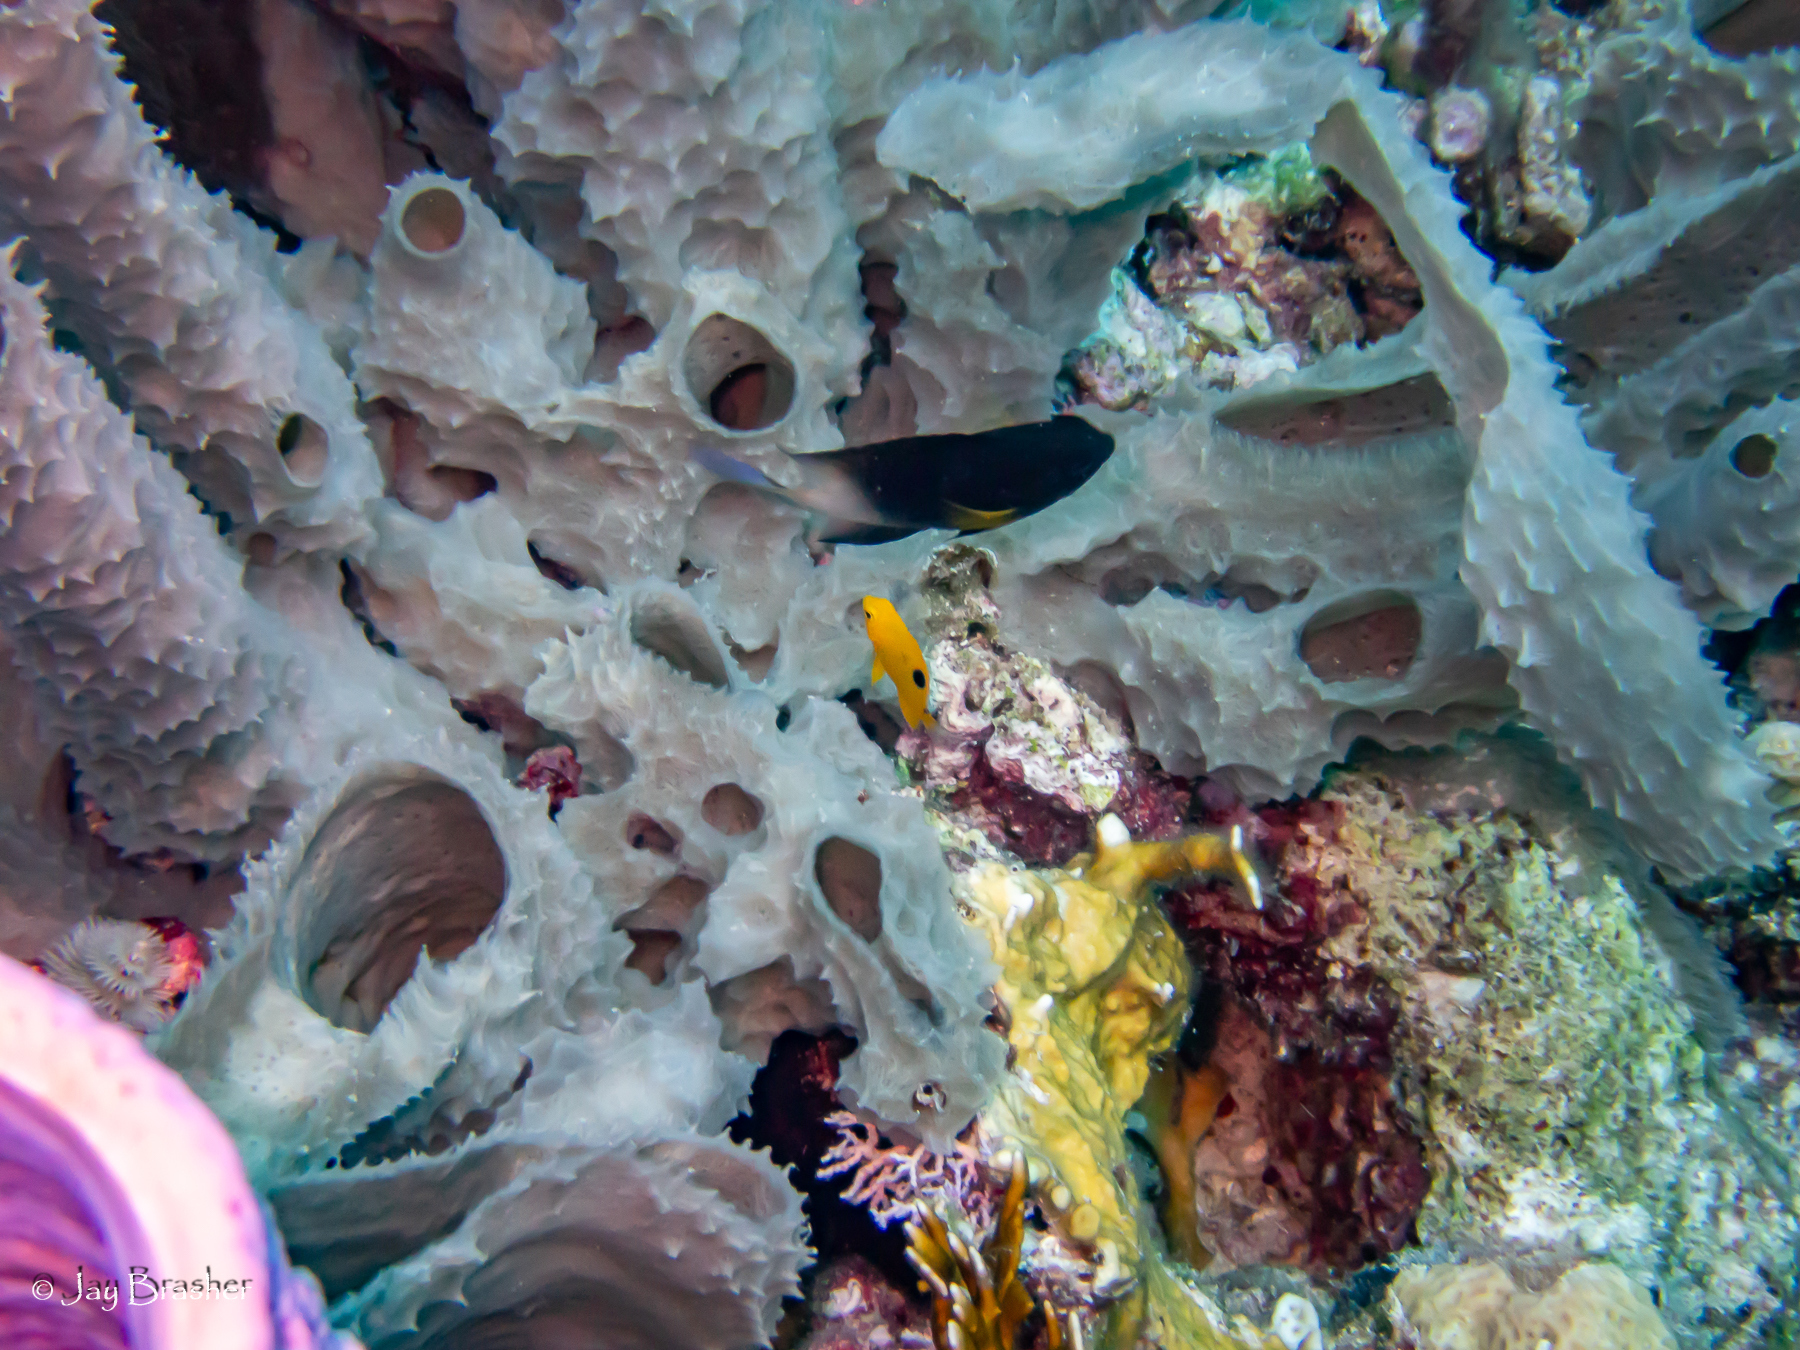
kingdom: Animalia
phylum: Chordata
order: Perciformes
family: Pomacentridae
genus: Stegastes
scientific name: Stegastes partitus
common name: Bicolor damselfish
